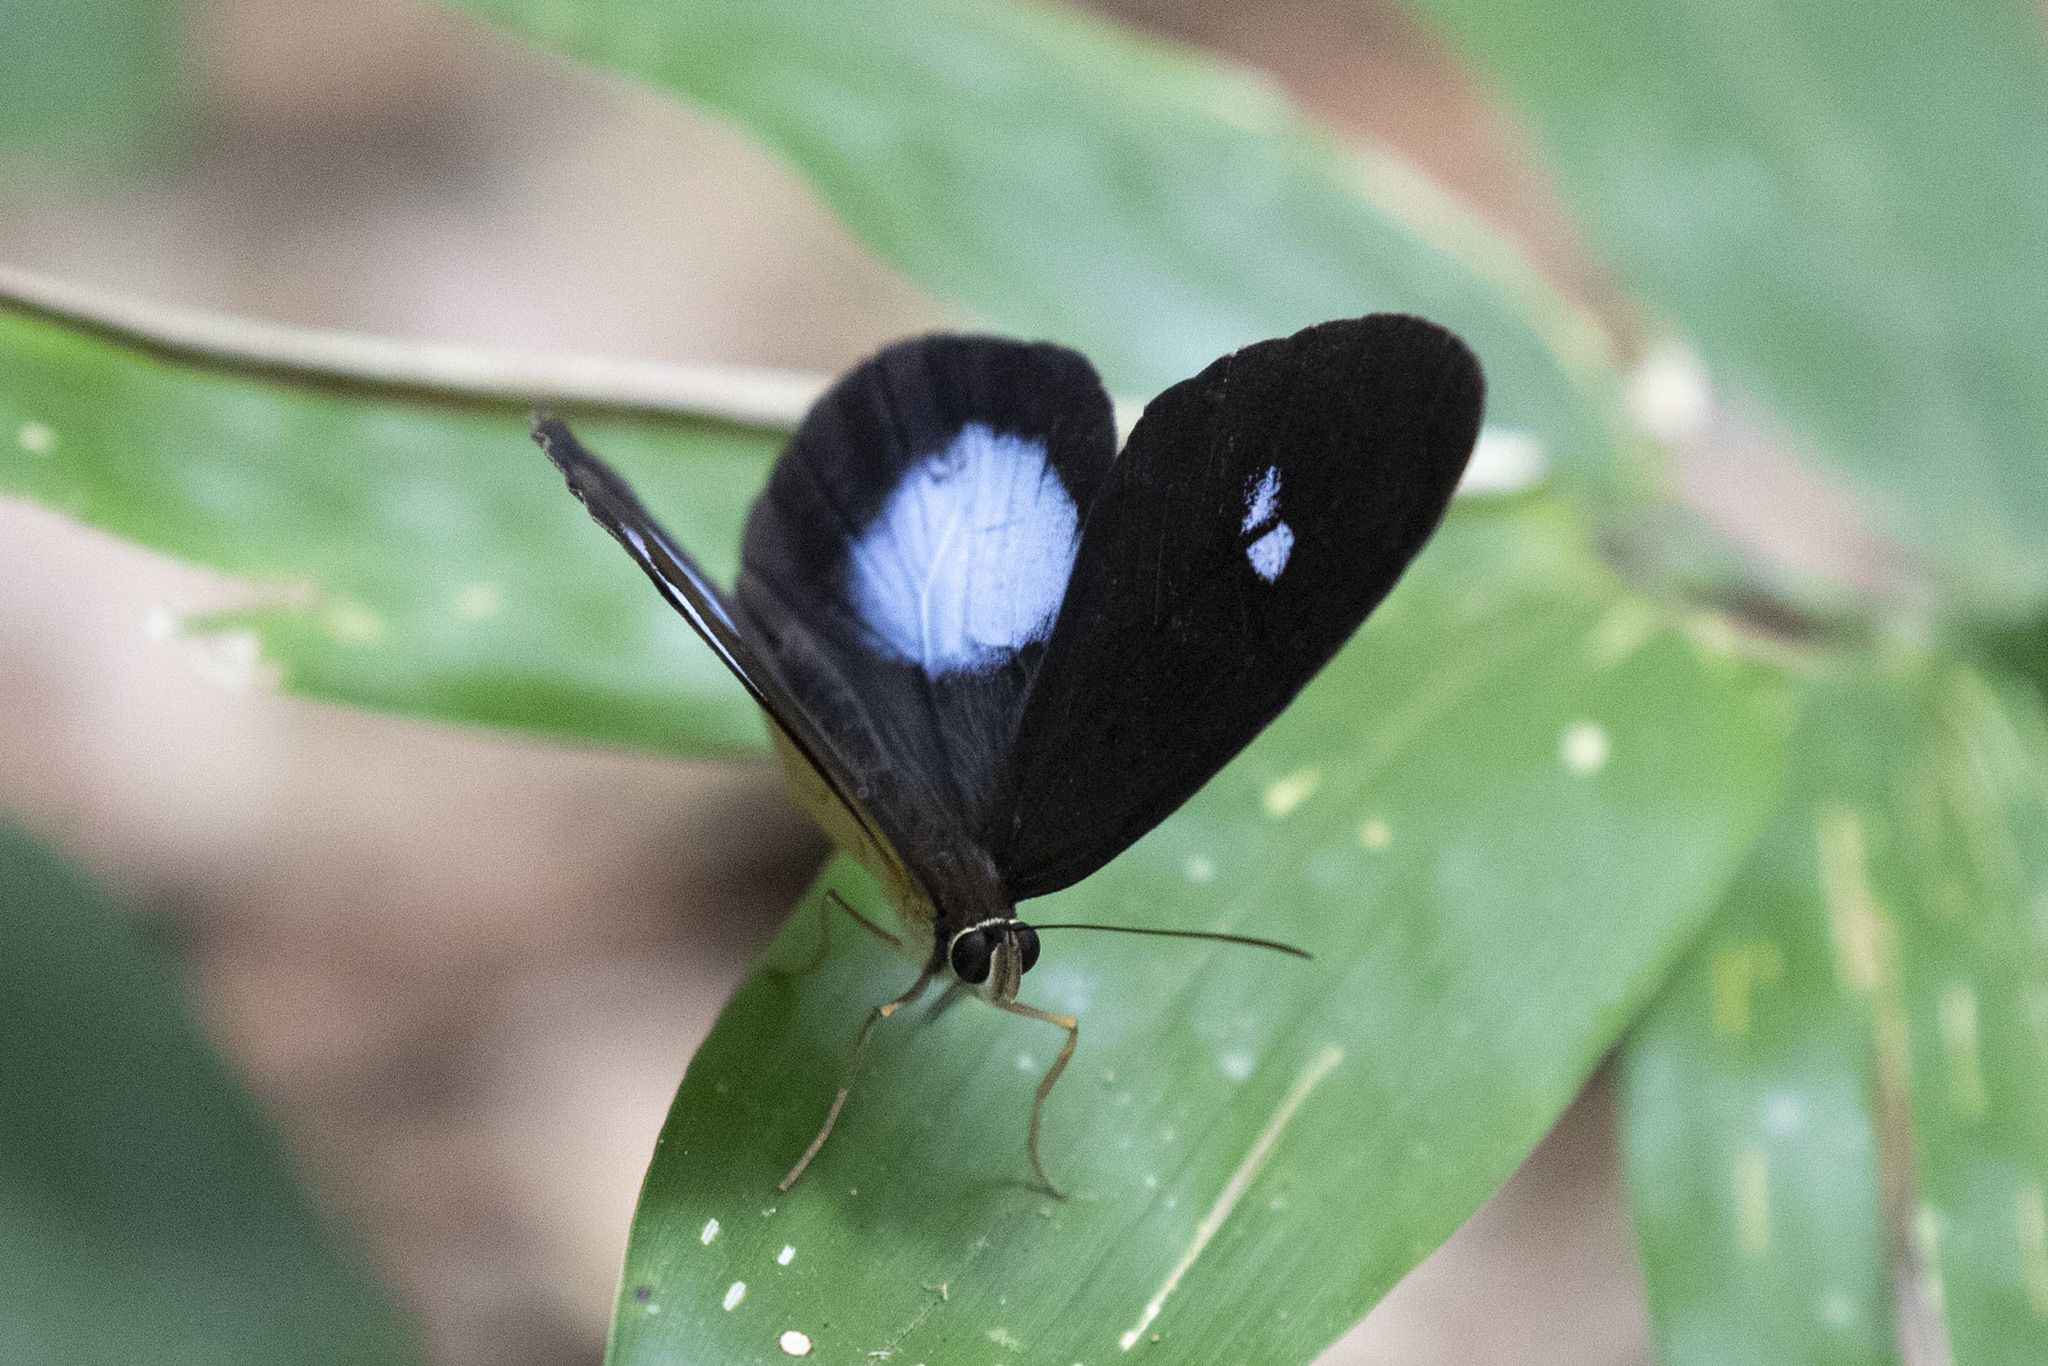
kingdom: Animalia
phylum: Arthropoda
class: Insecta
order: Lepidoptera
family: Nymphalidae
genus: Pierella
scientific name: Pierella hortona
